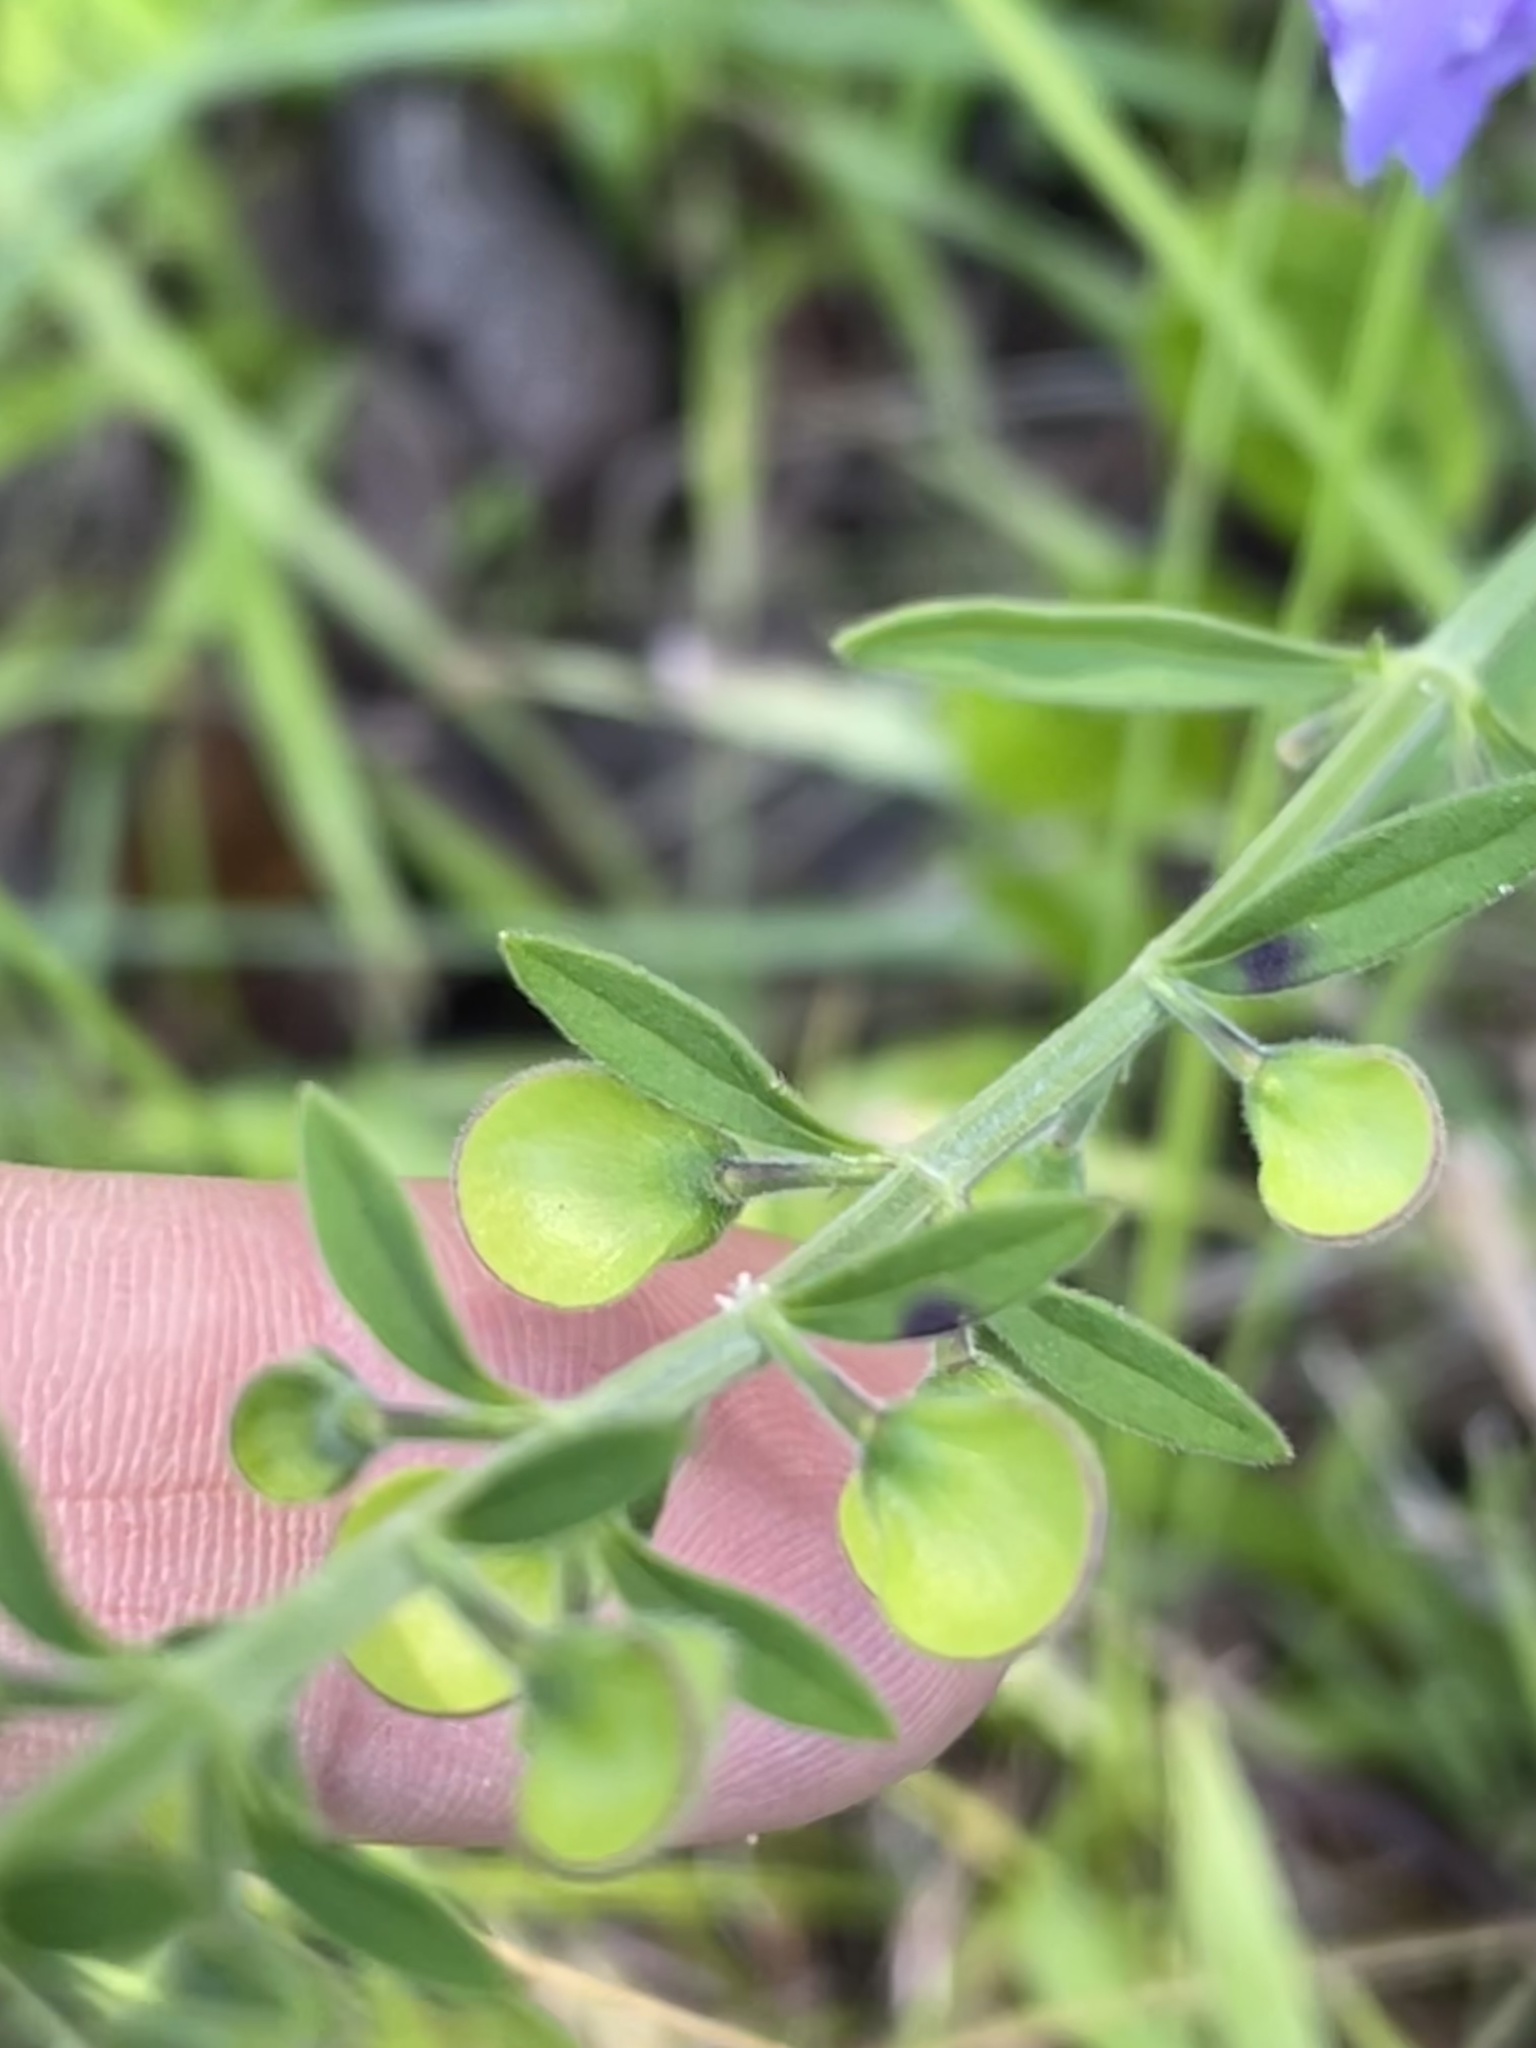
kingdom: Plantae
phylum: Tracheophyta
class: Magnoliopsida
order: Lamiales
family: Lamiaceae
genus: Scutellaria
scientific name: Scutellaria integrifolia
